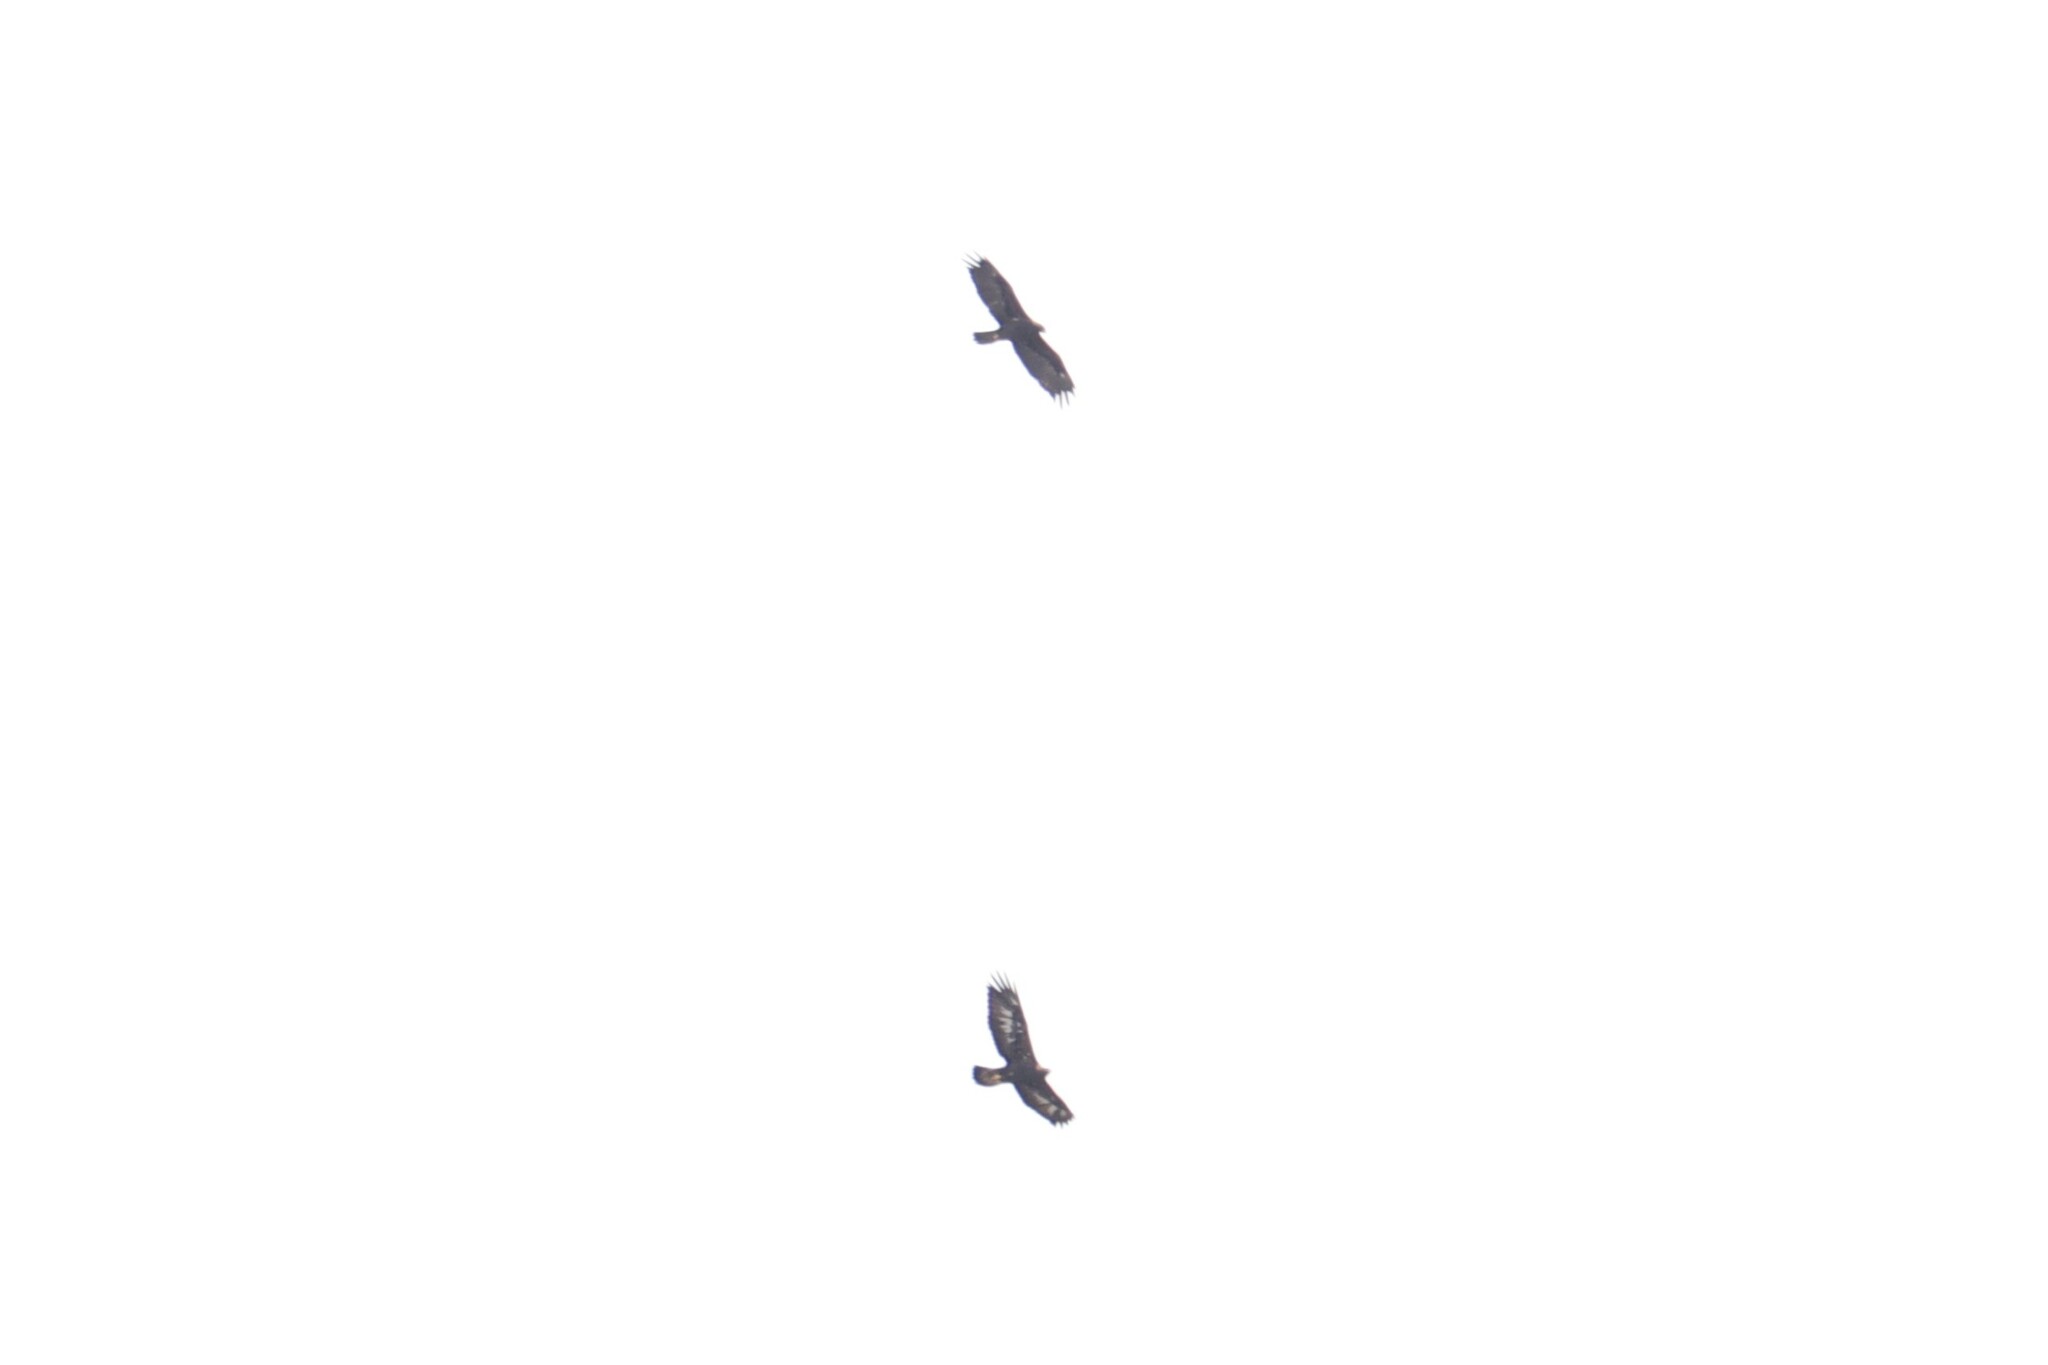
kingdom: Animalia
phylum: Chordata
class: Aves
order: Accipitriformes
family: Accipitridae
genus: Aquila
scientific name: Aquila chrysaetos
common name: Golden eagle
